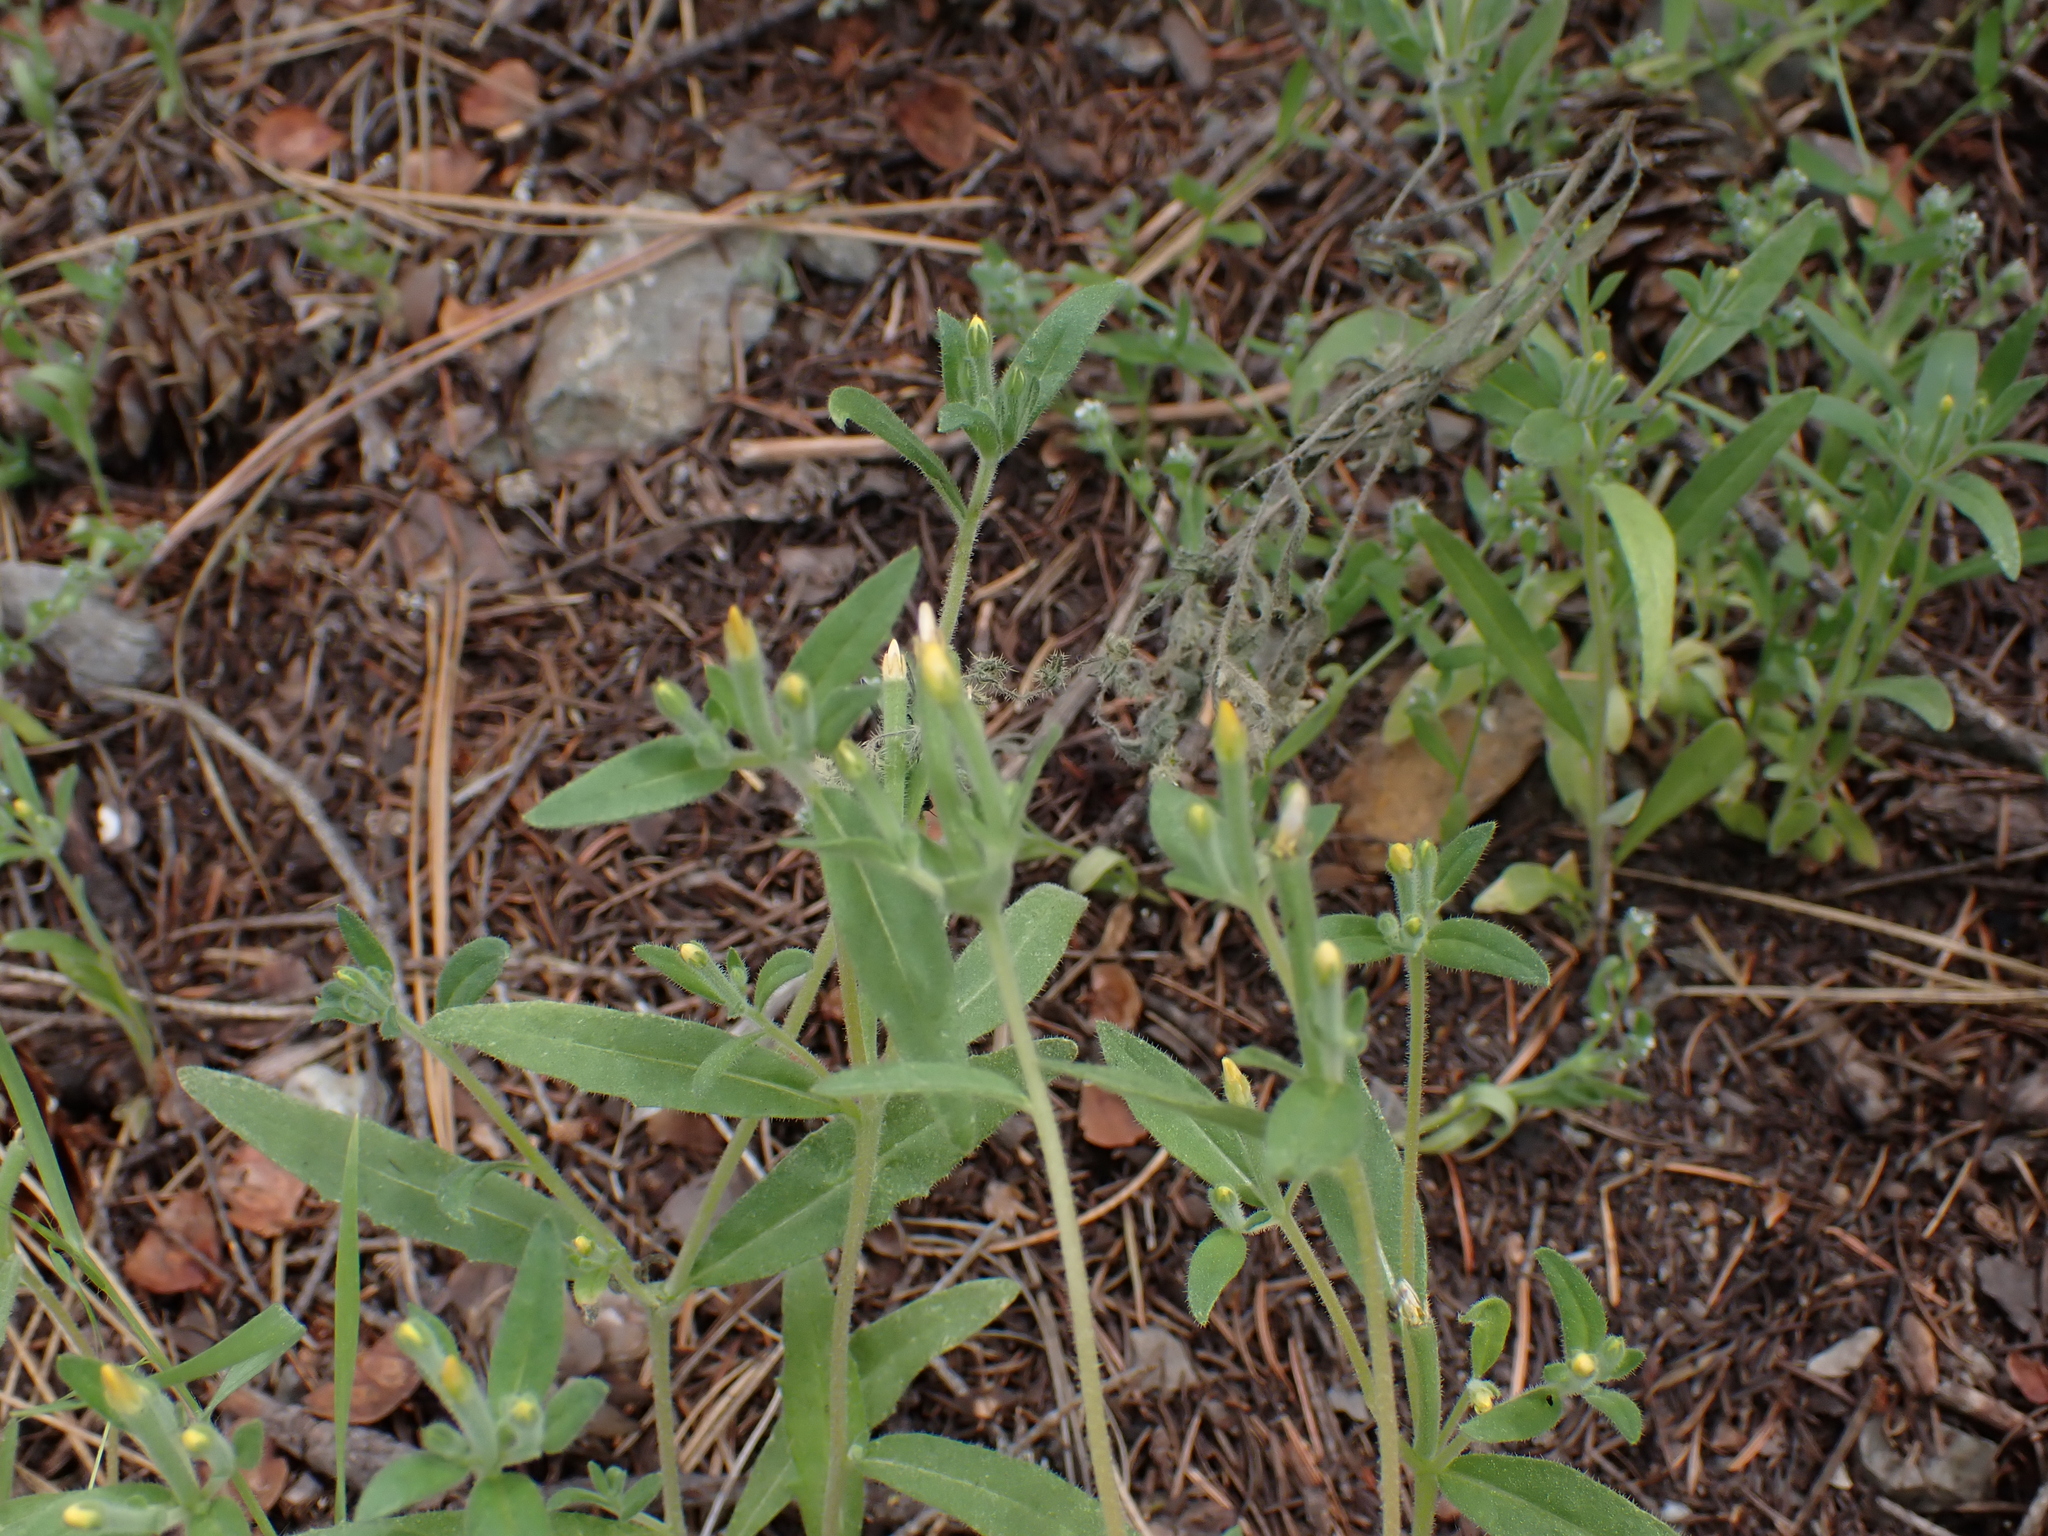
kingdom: Plantae
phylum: Tracheophyta
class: Magnoliopsida
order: Cornales
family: Loasaceae
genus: Mentzelia
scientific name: Mentzelia dispersa
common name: Nada stickleaf
